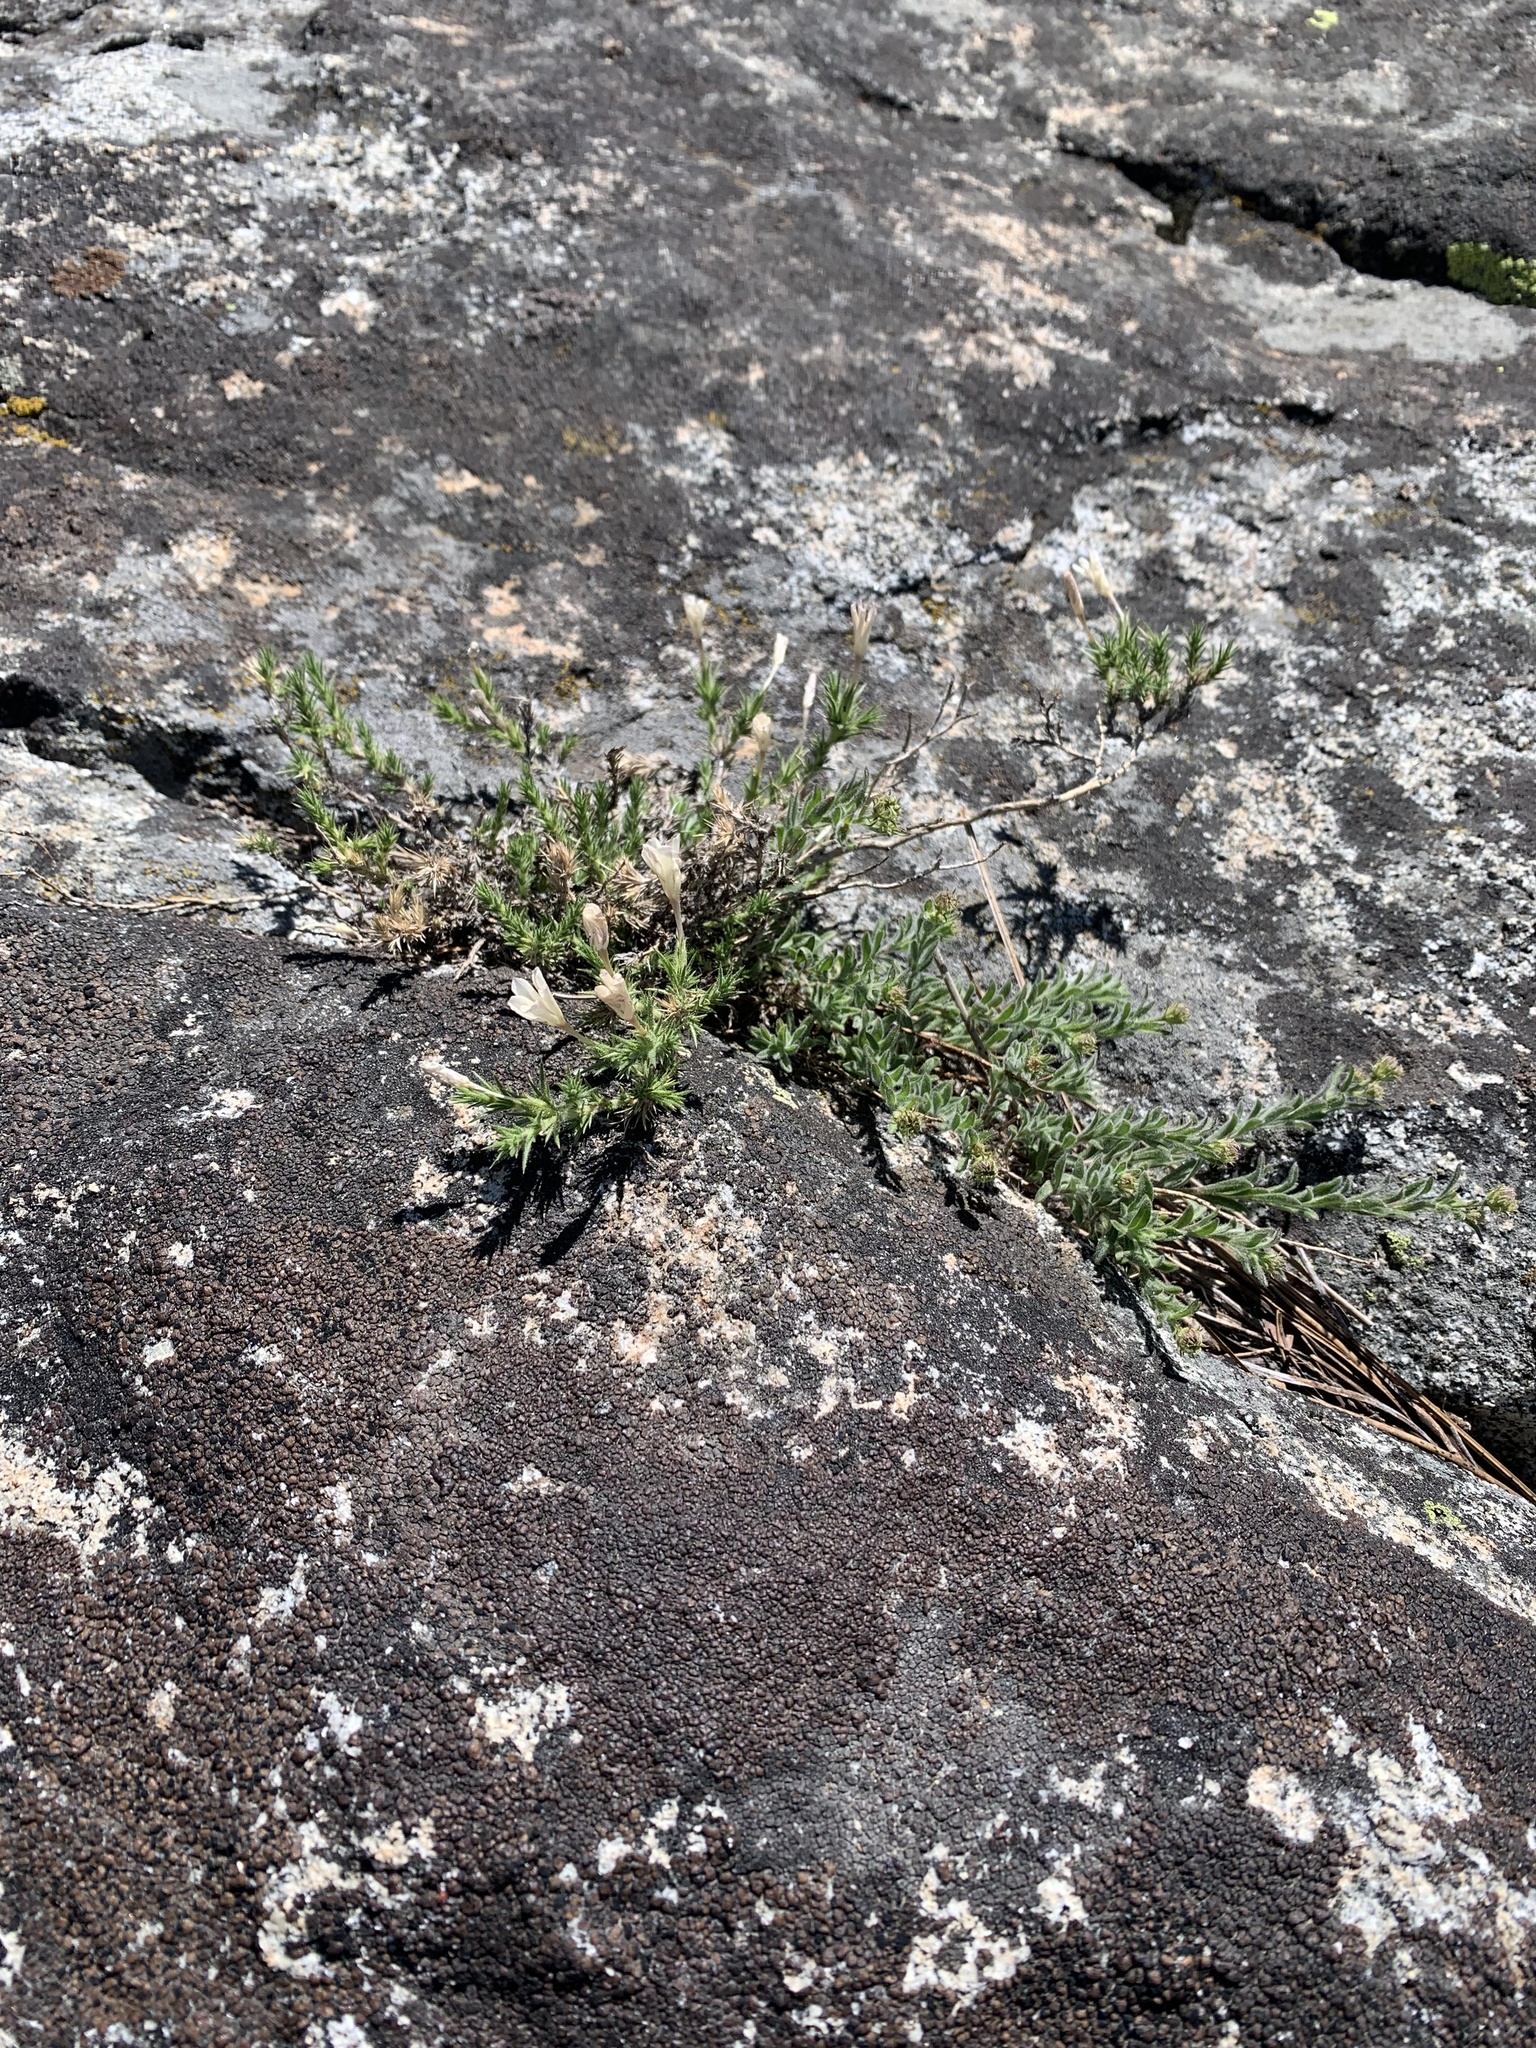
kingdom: Plantae
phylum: Tracheophyta
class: Magnoliopsida
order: Ericales
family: Polemoniaceae
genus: Linanthus
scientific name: Linanthus pungens
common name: Granite prickly phlox
